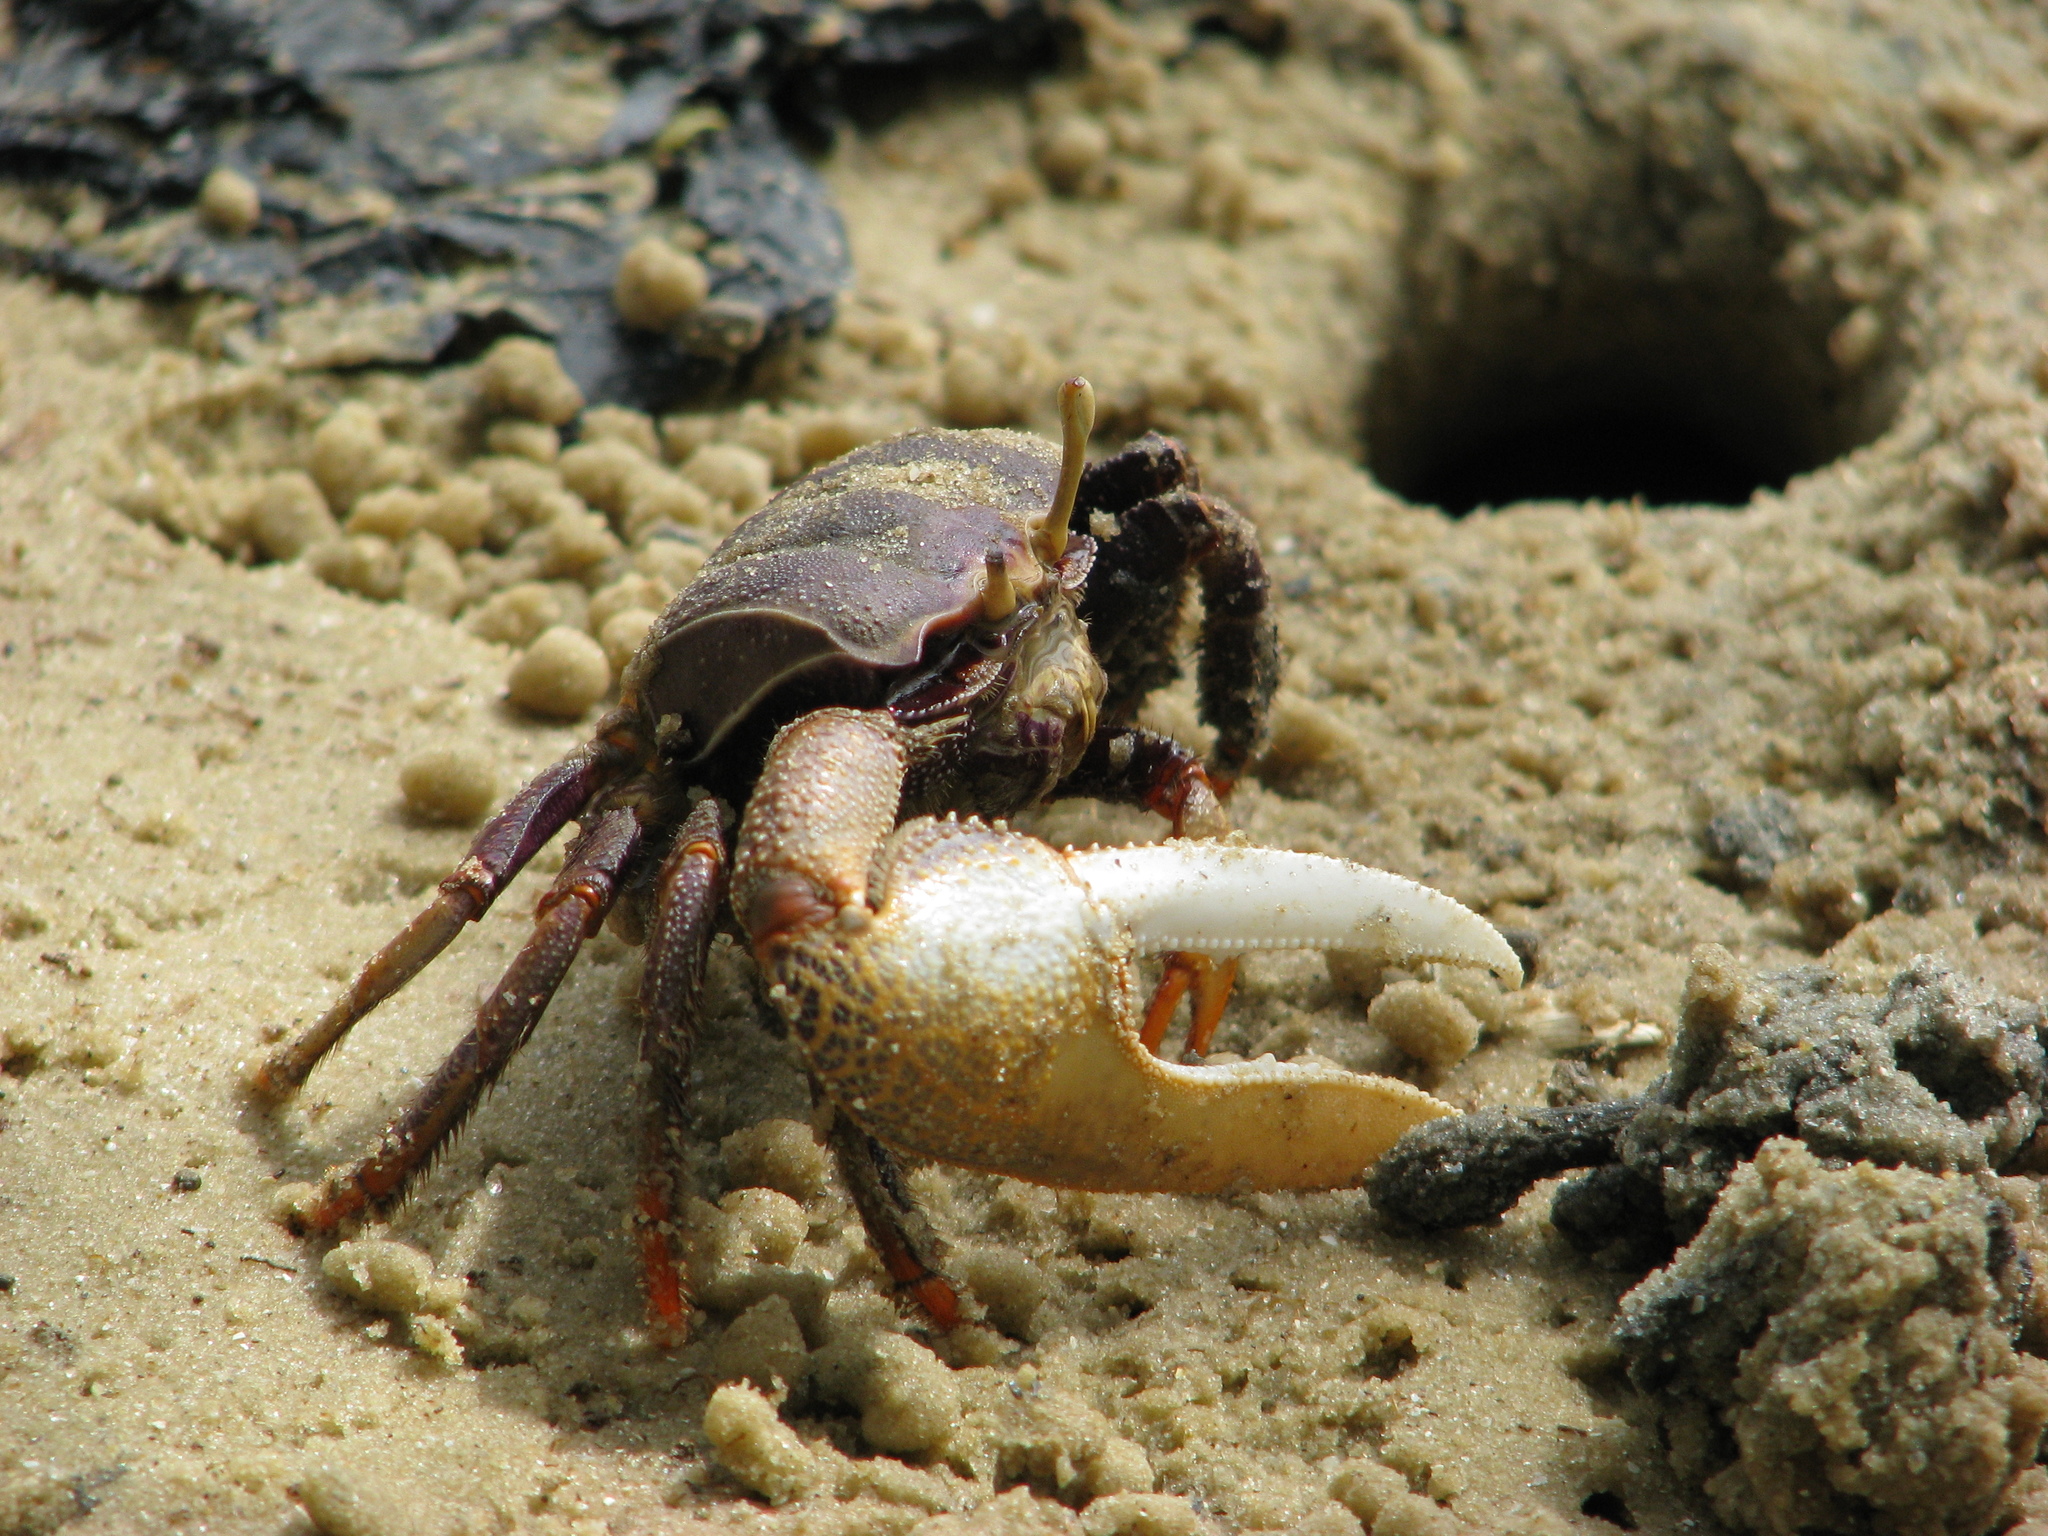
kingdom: Animalia
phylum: Arthropoda
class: Malacostraca
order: Decapoda
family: Ocypodidae
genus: Afruca
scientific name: Afruca tangeri
